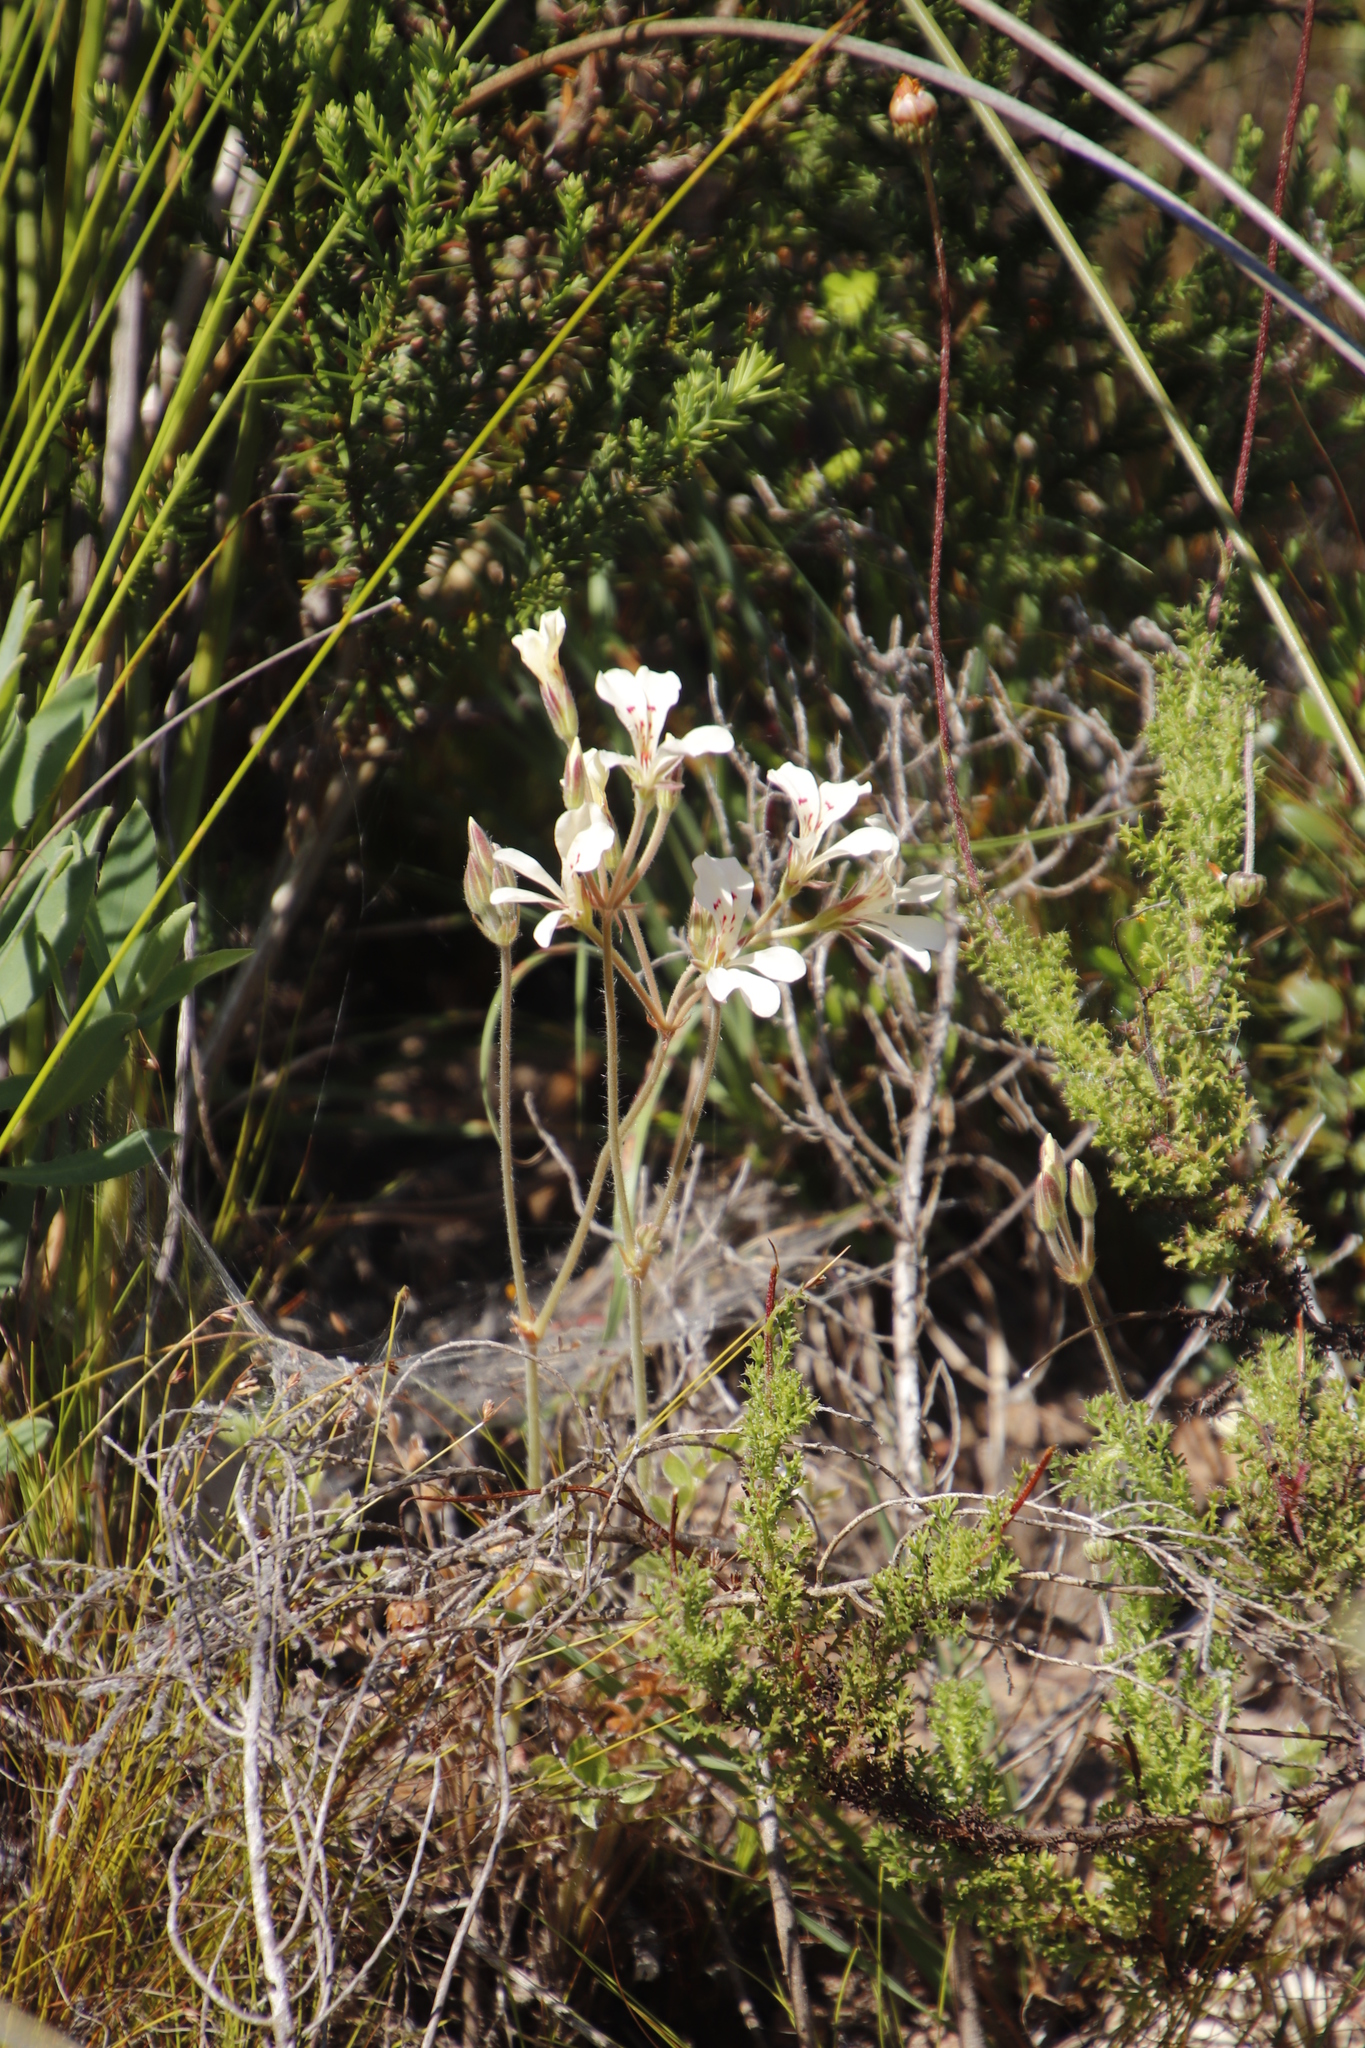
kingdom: Plantae
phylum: Tracheophyta
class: Magnoliopsida
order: Geraniales
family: Geraniaceae
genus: Pelargonium
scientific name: Pelargonium pinnatum
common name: Pinnated pelargonium
